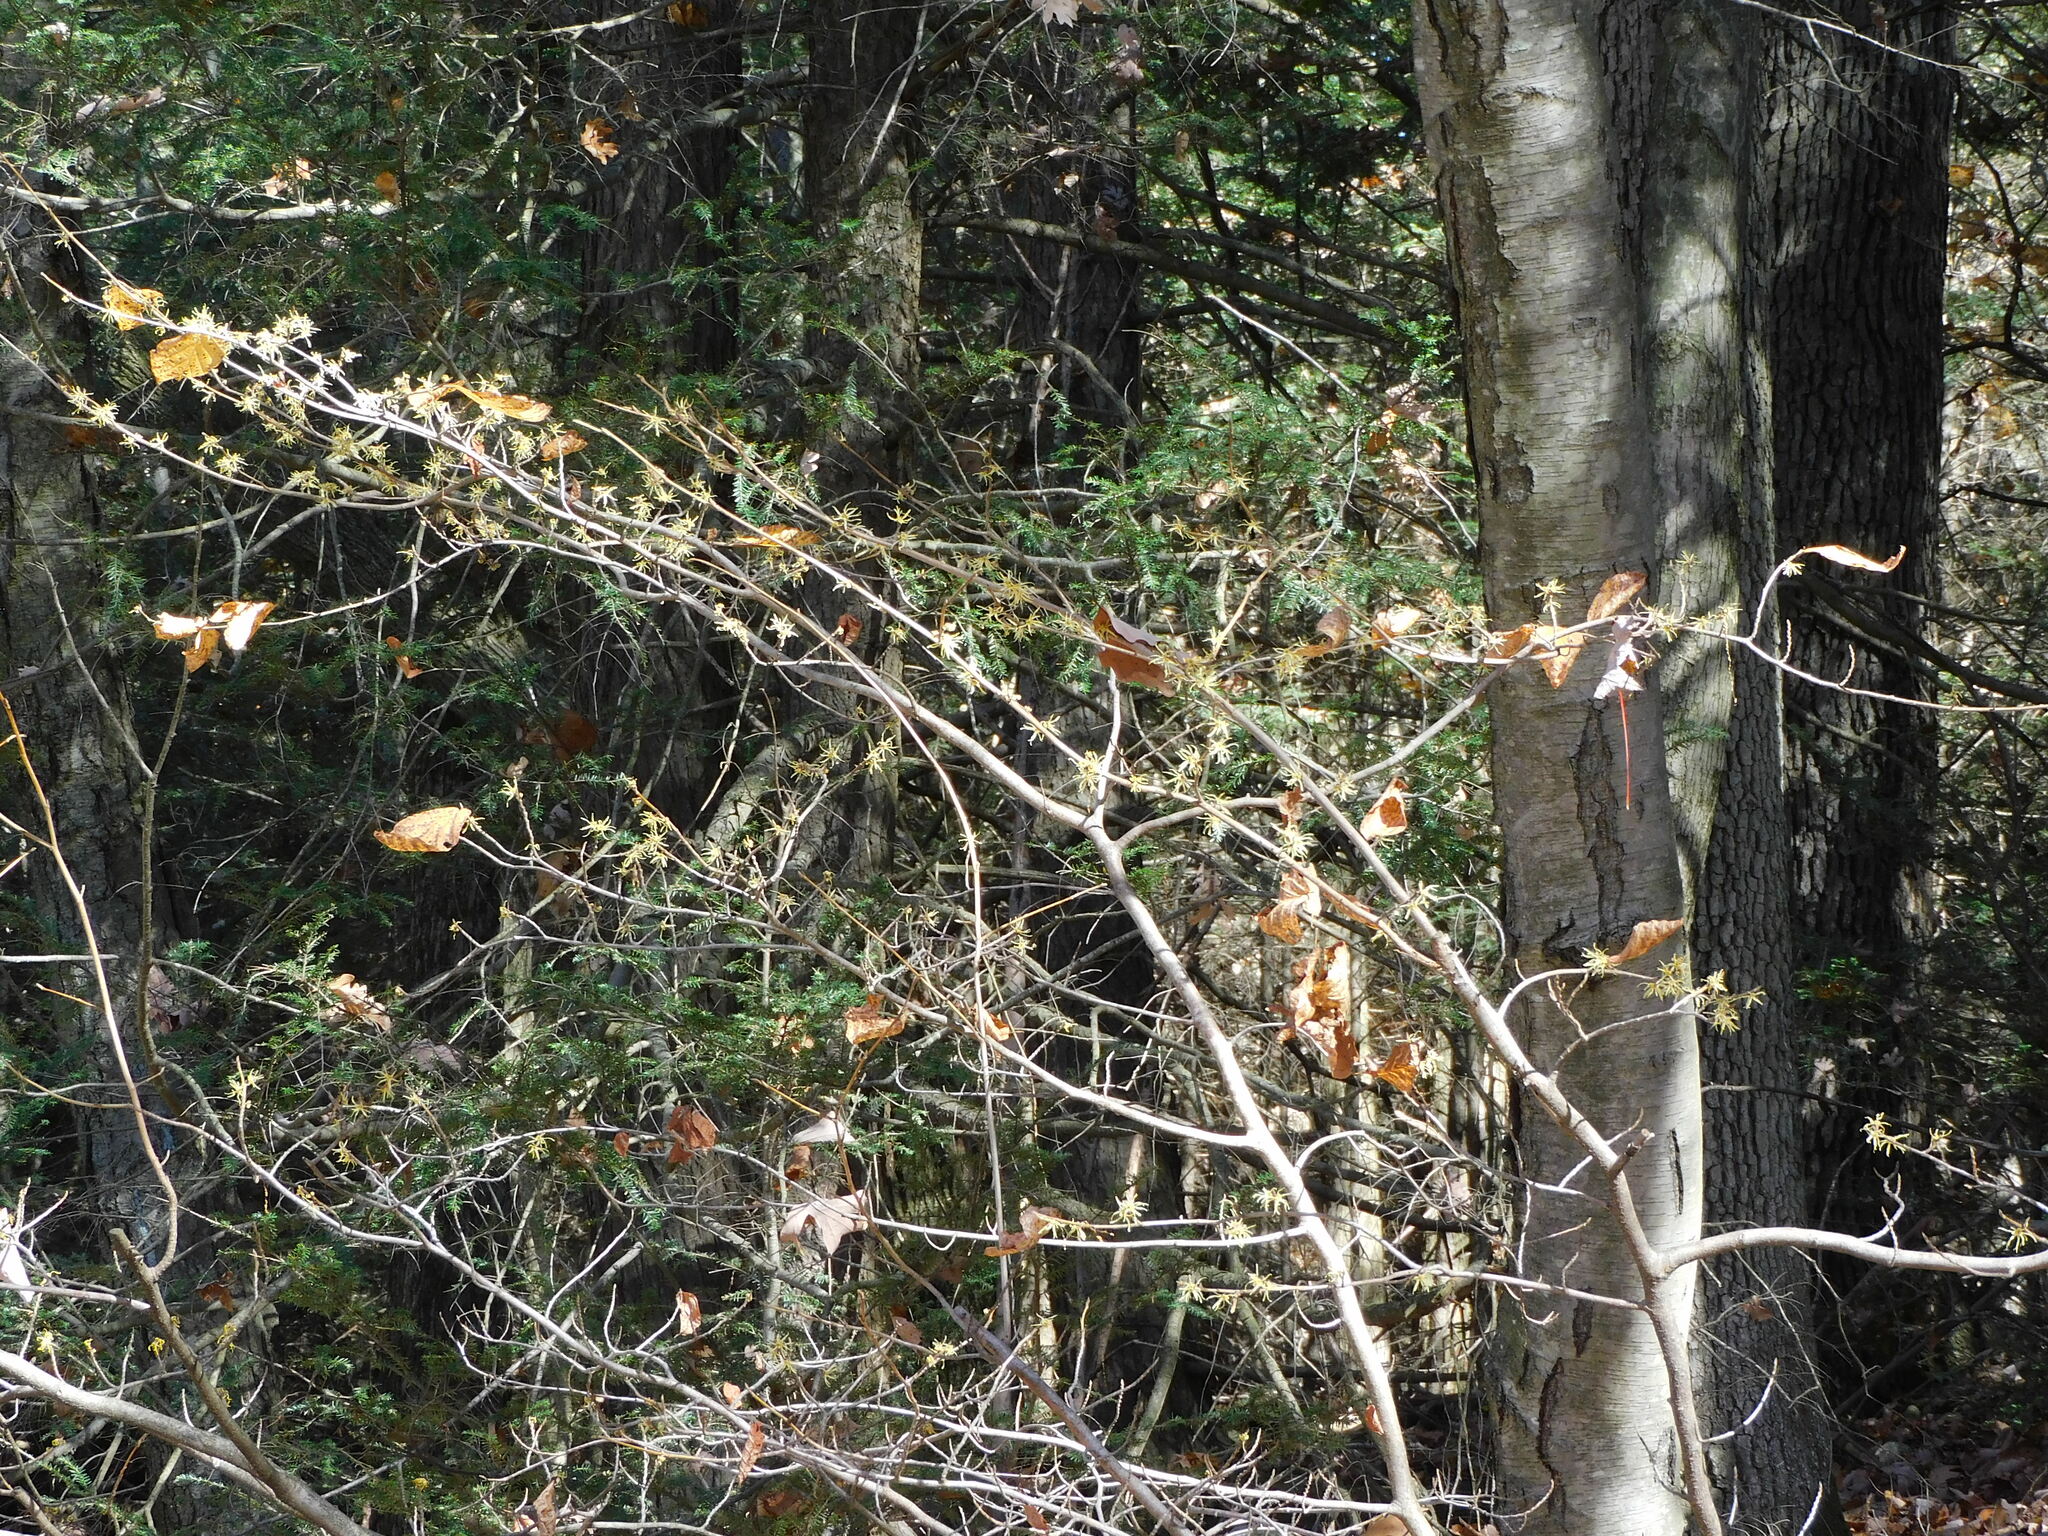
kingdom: Plantae
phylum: Tracheophyta
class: Magnoliopsida
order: Saxifragales
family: Hamamelidaceae
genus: Hamamelis
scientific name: Hamamelis virginiana
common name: Witch-hazel
